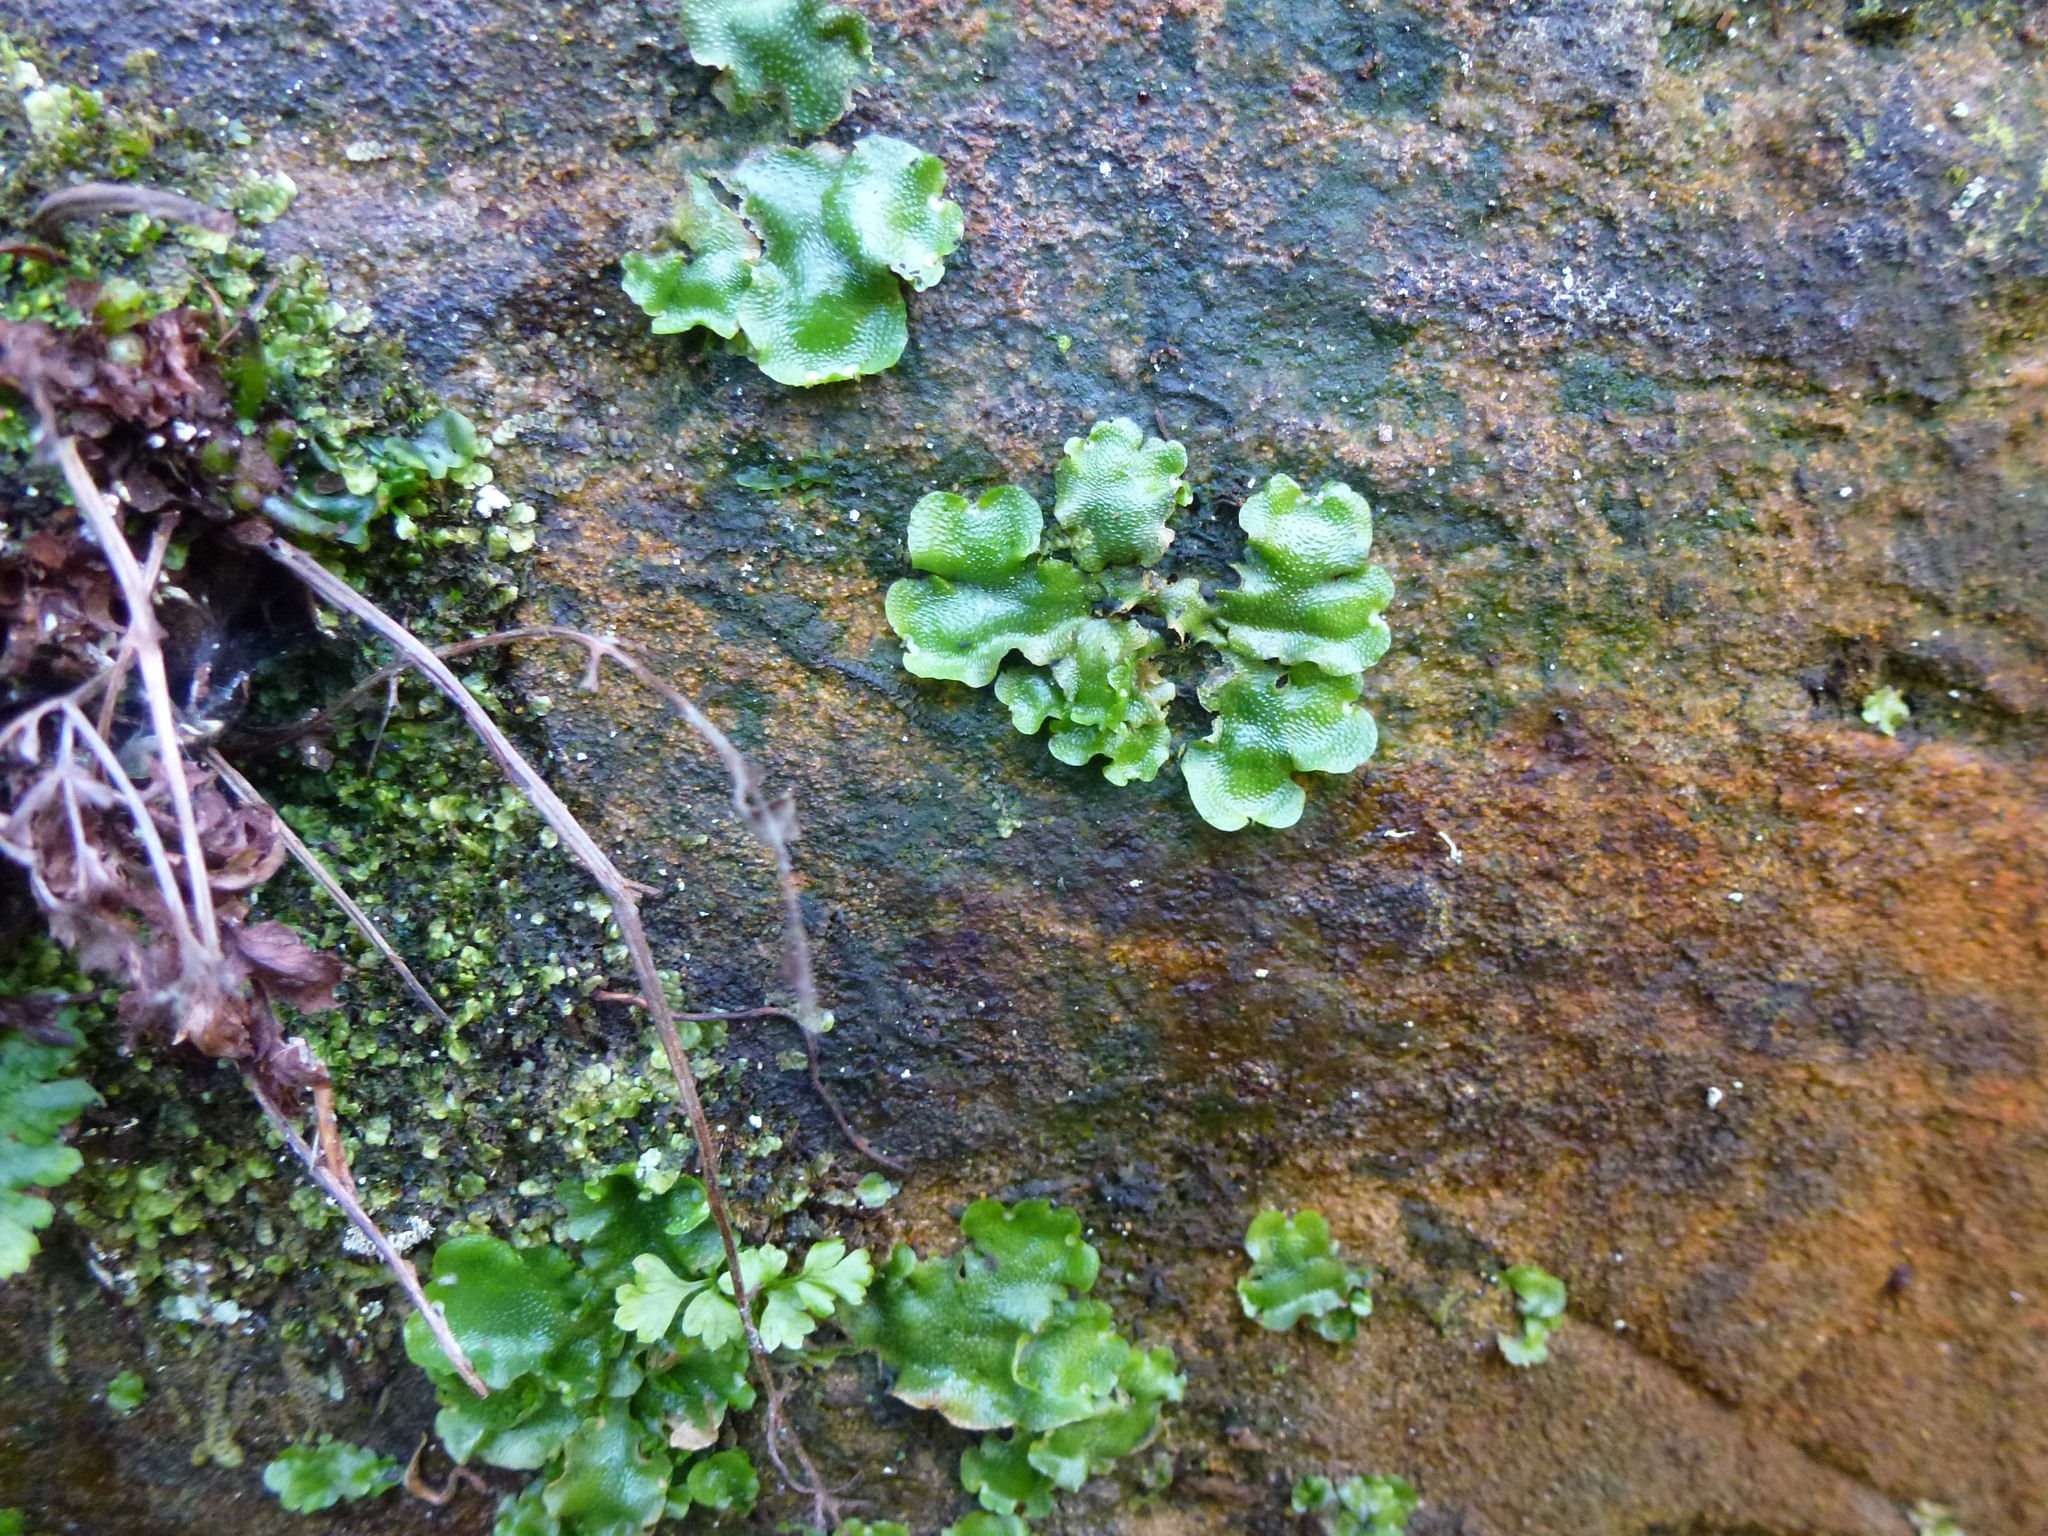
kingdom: Plantae
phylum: Marchantiophyta
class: Marchantiopsida
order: Lunulariales
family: Lunulariaceae
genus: Lunularia
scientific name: Lunularia cruciata
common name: Crescent-cup liverwort
